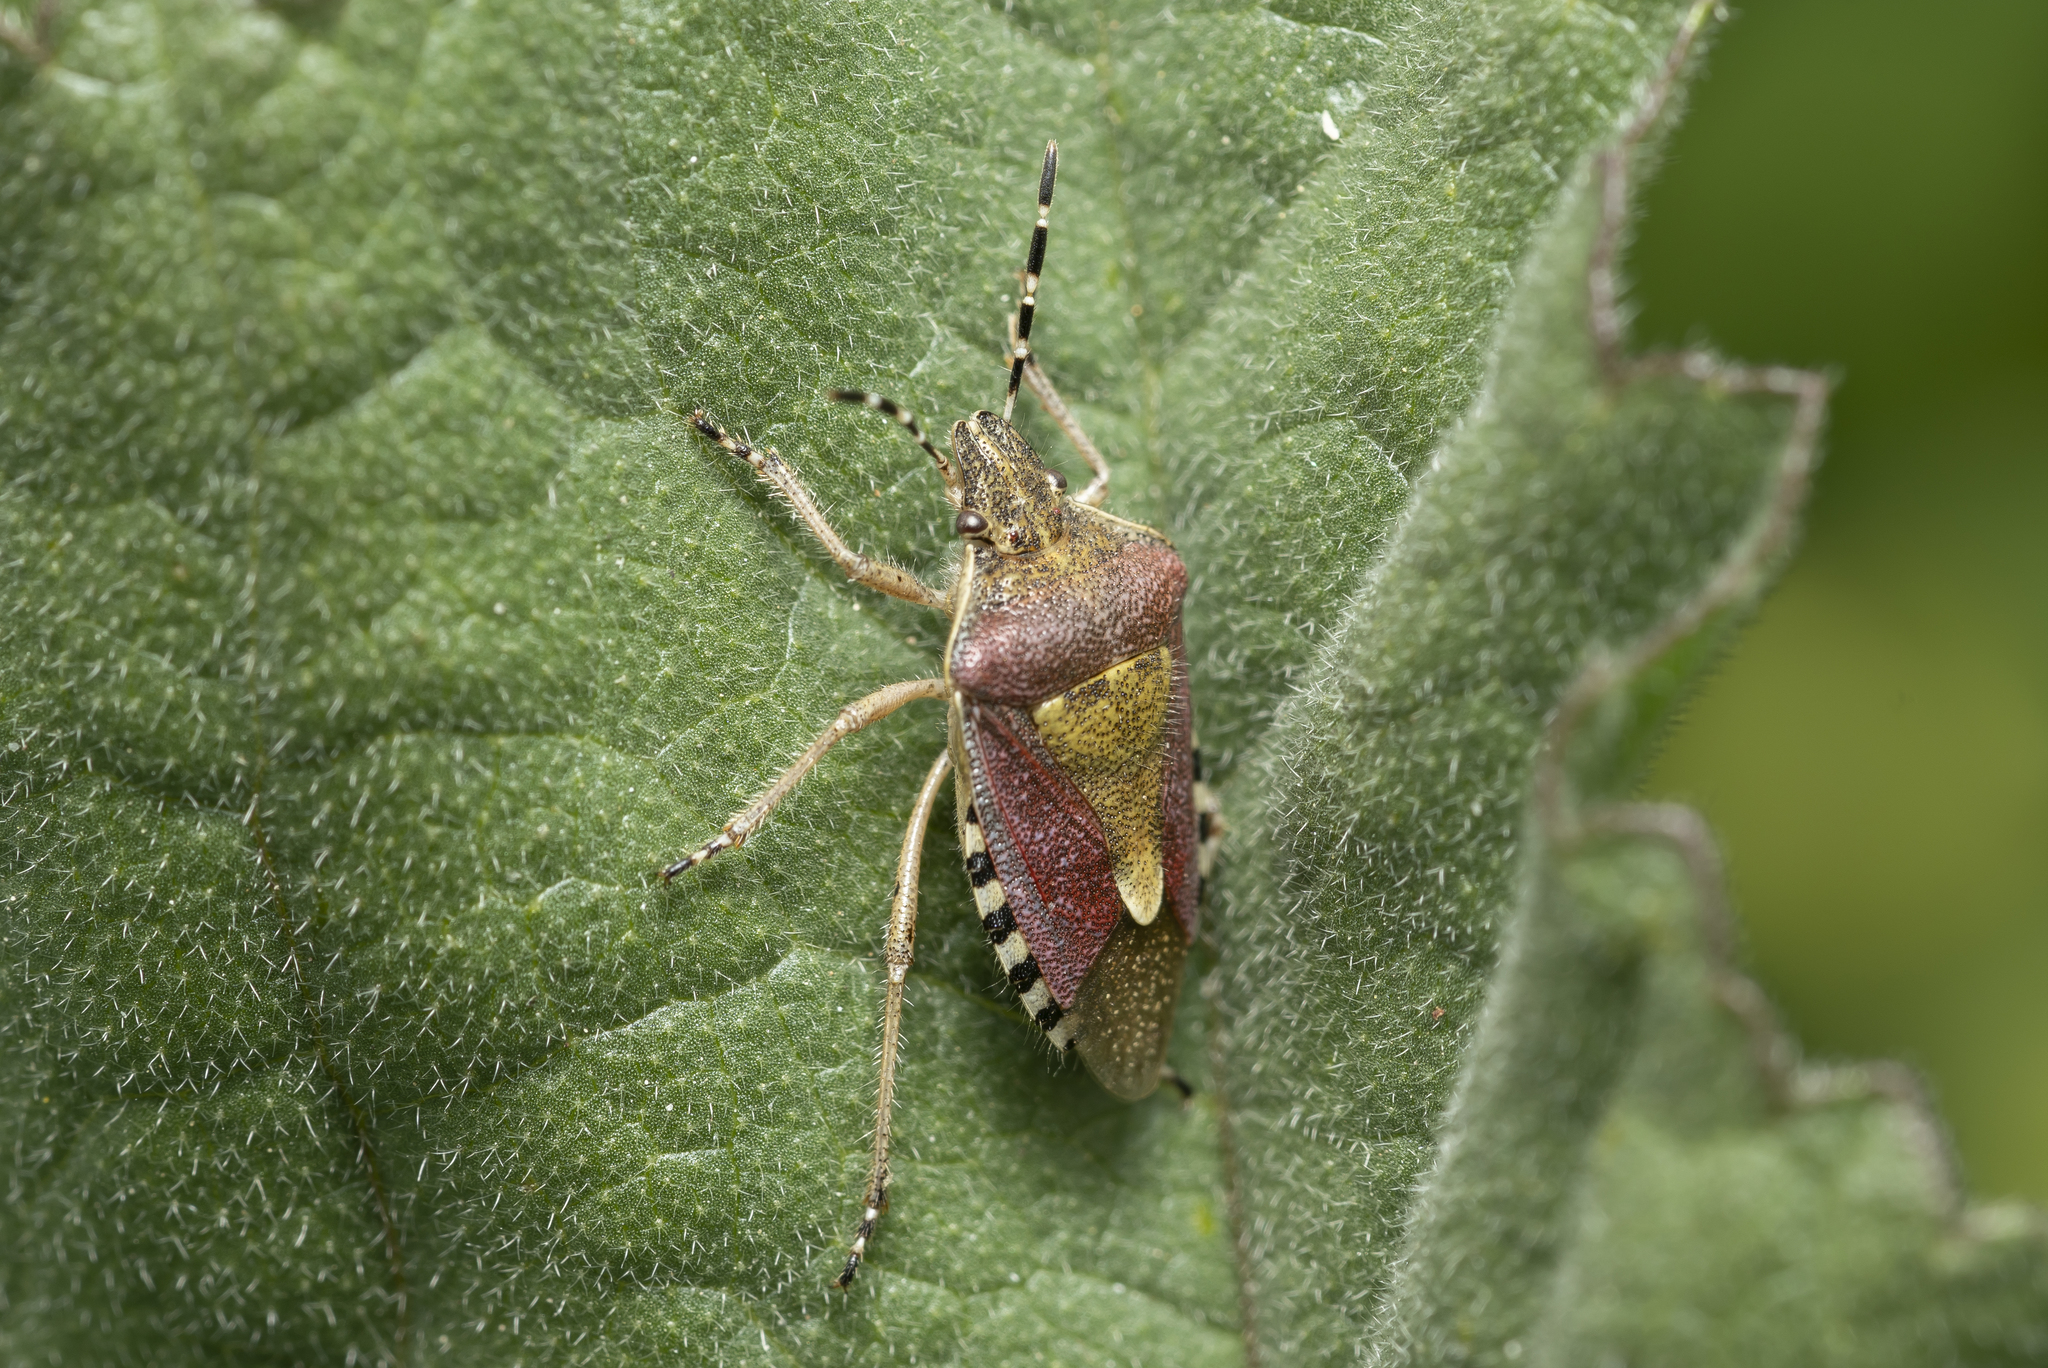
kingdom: Animalia
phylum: Arthropoda
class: Insecta
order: Hemiptera
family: Pentatomidae
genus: Dolycoris
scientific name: Dolycoris baccarum
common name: Sloe bug
